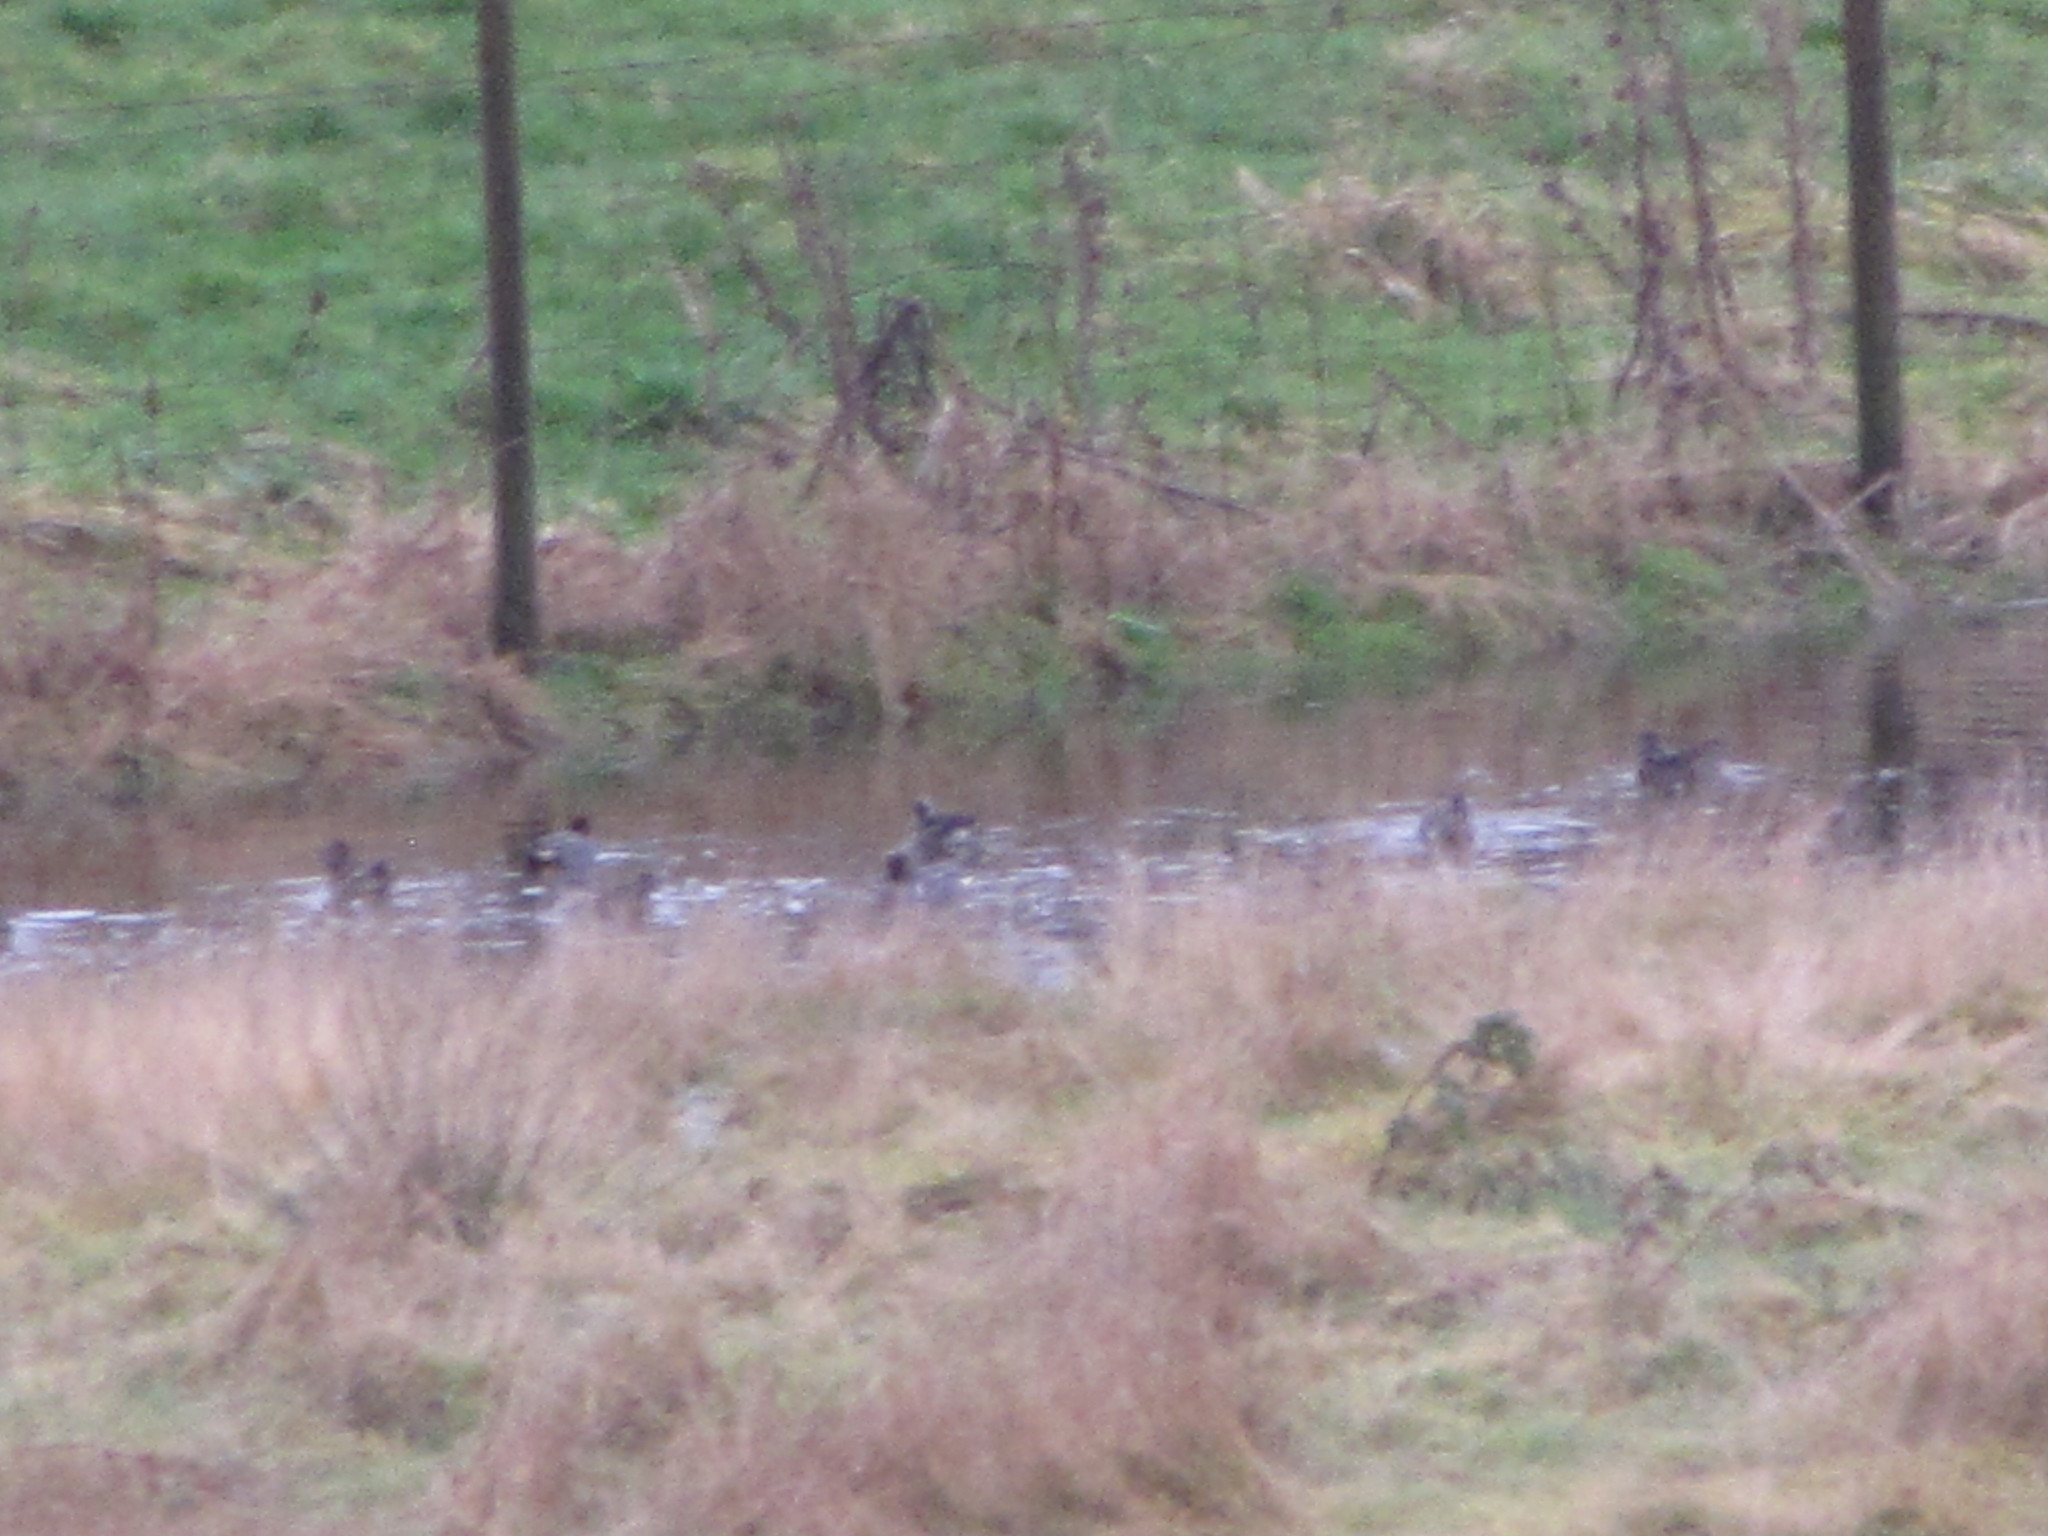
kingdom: Animalia
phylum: Chordata
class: Aves
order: Anseriformes
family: Anatidae
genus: Anas
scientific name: Anas crecca
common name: Eurasian teal
